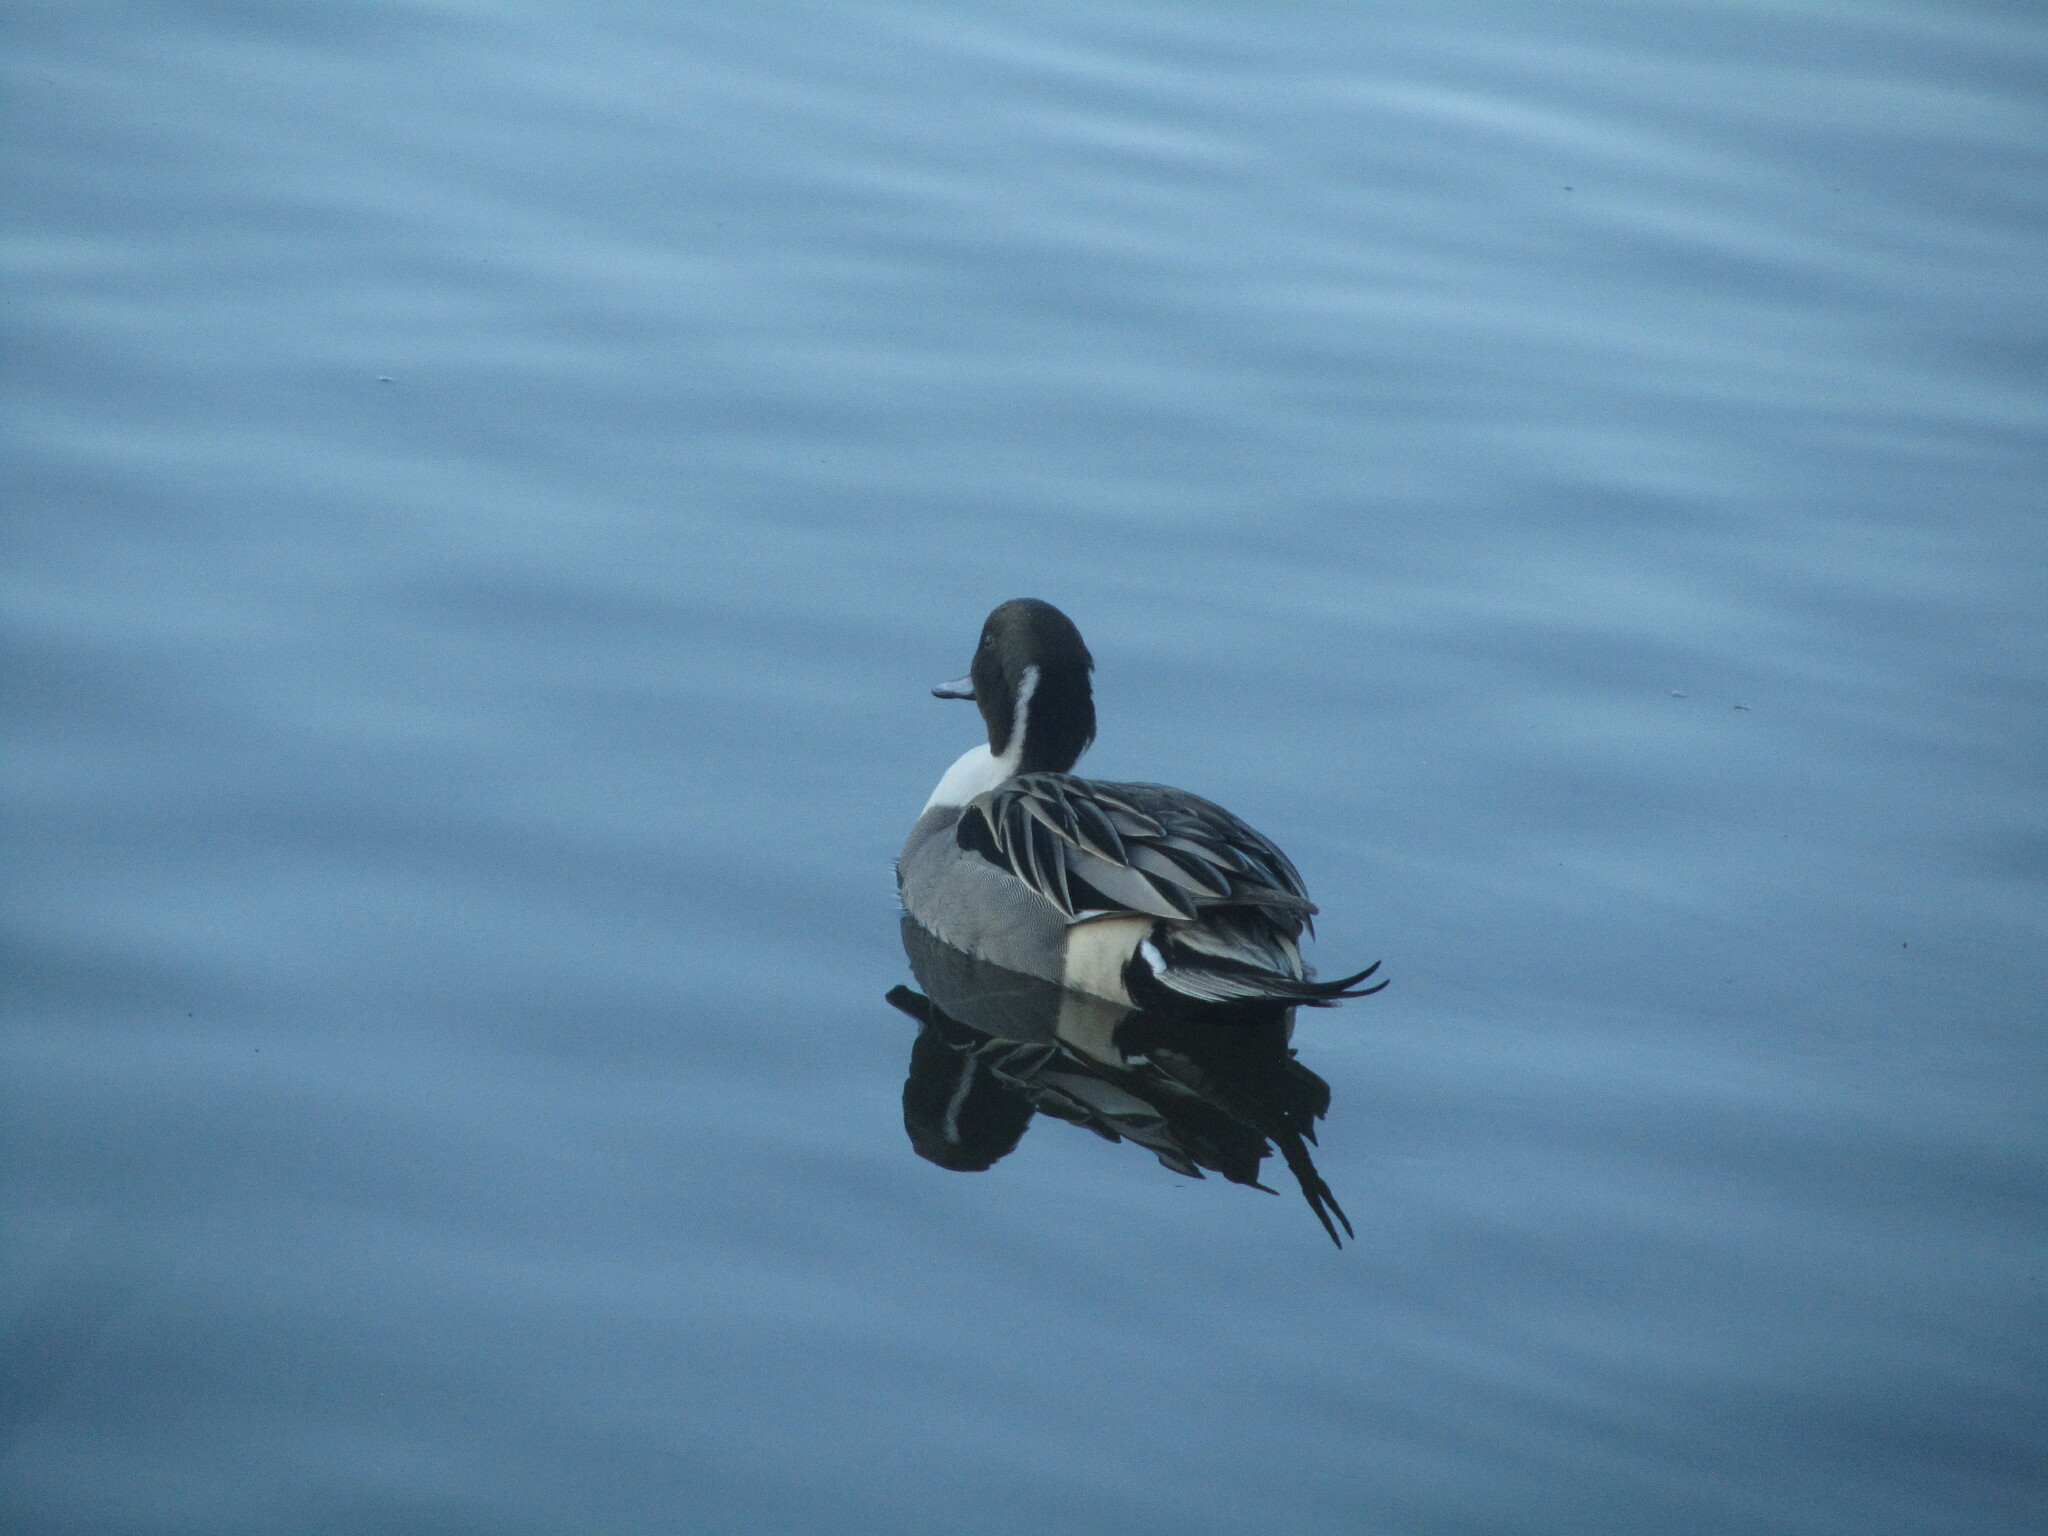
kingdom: Animalia
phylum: Chordata
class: Aves
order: Anseriformes
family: Anatidae
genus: Anas
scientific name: Anas acuta
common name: Northern pintail
